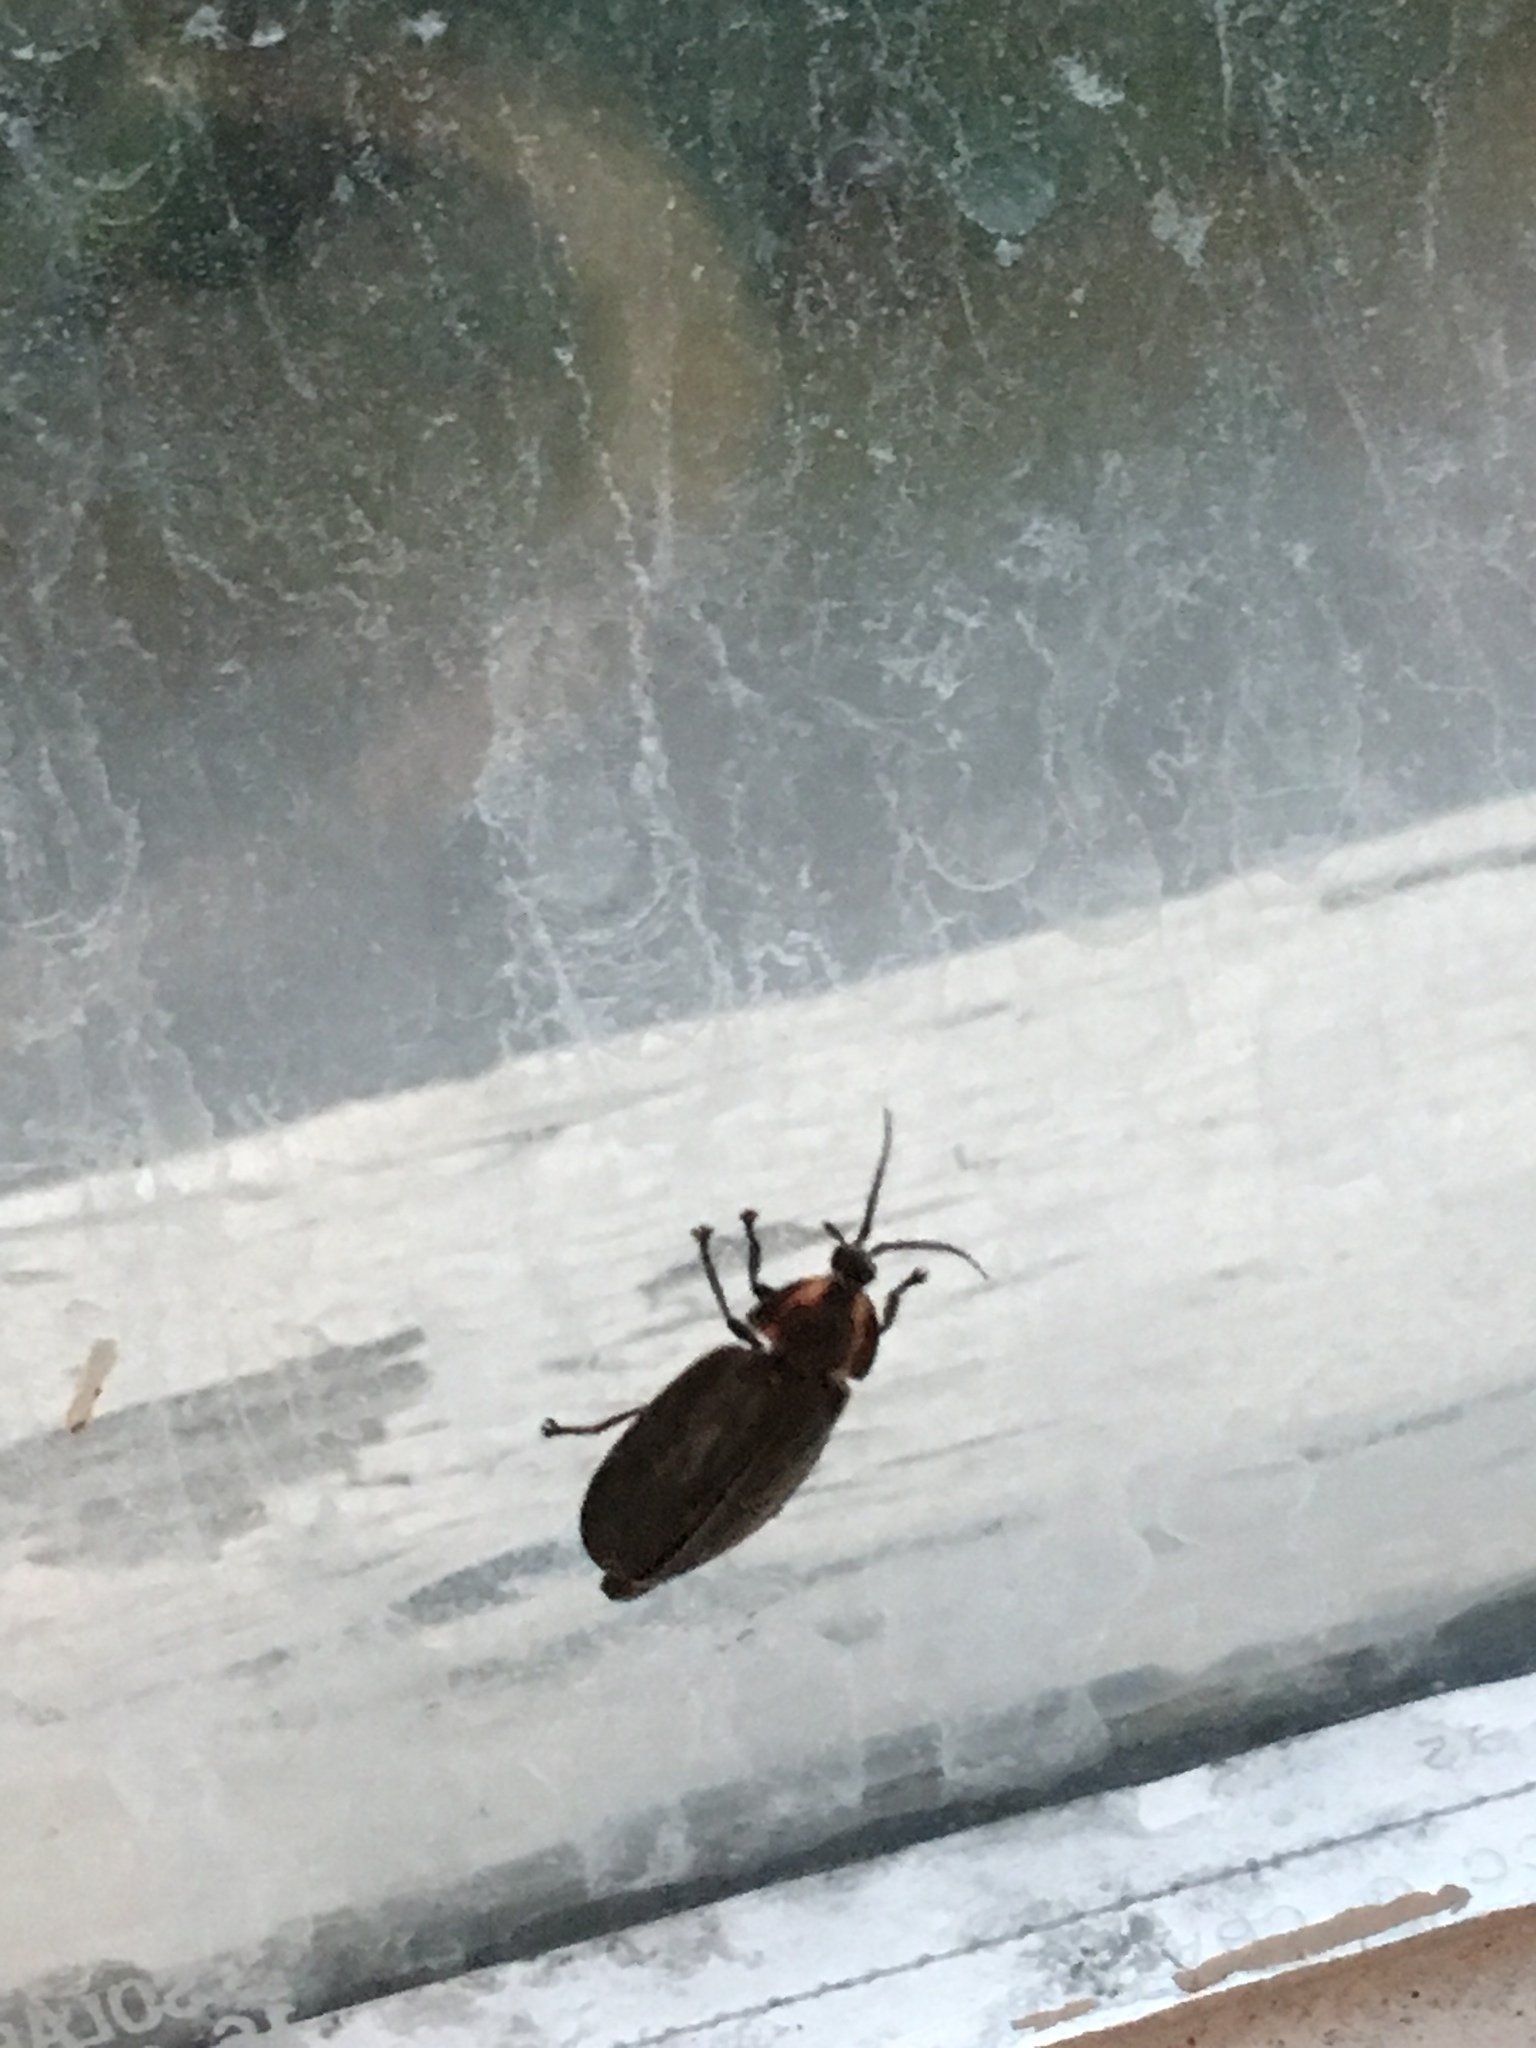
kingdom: Animalia
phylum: Arthropoda
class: Insecta
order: Coleoptera
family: Lampyridae
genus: Photinus
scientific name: Photinus corrusca
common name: Winter firefly
